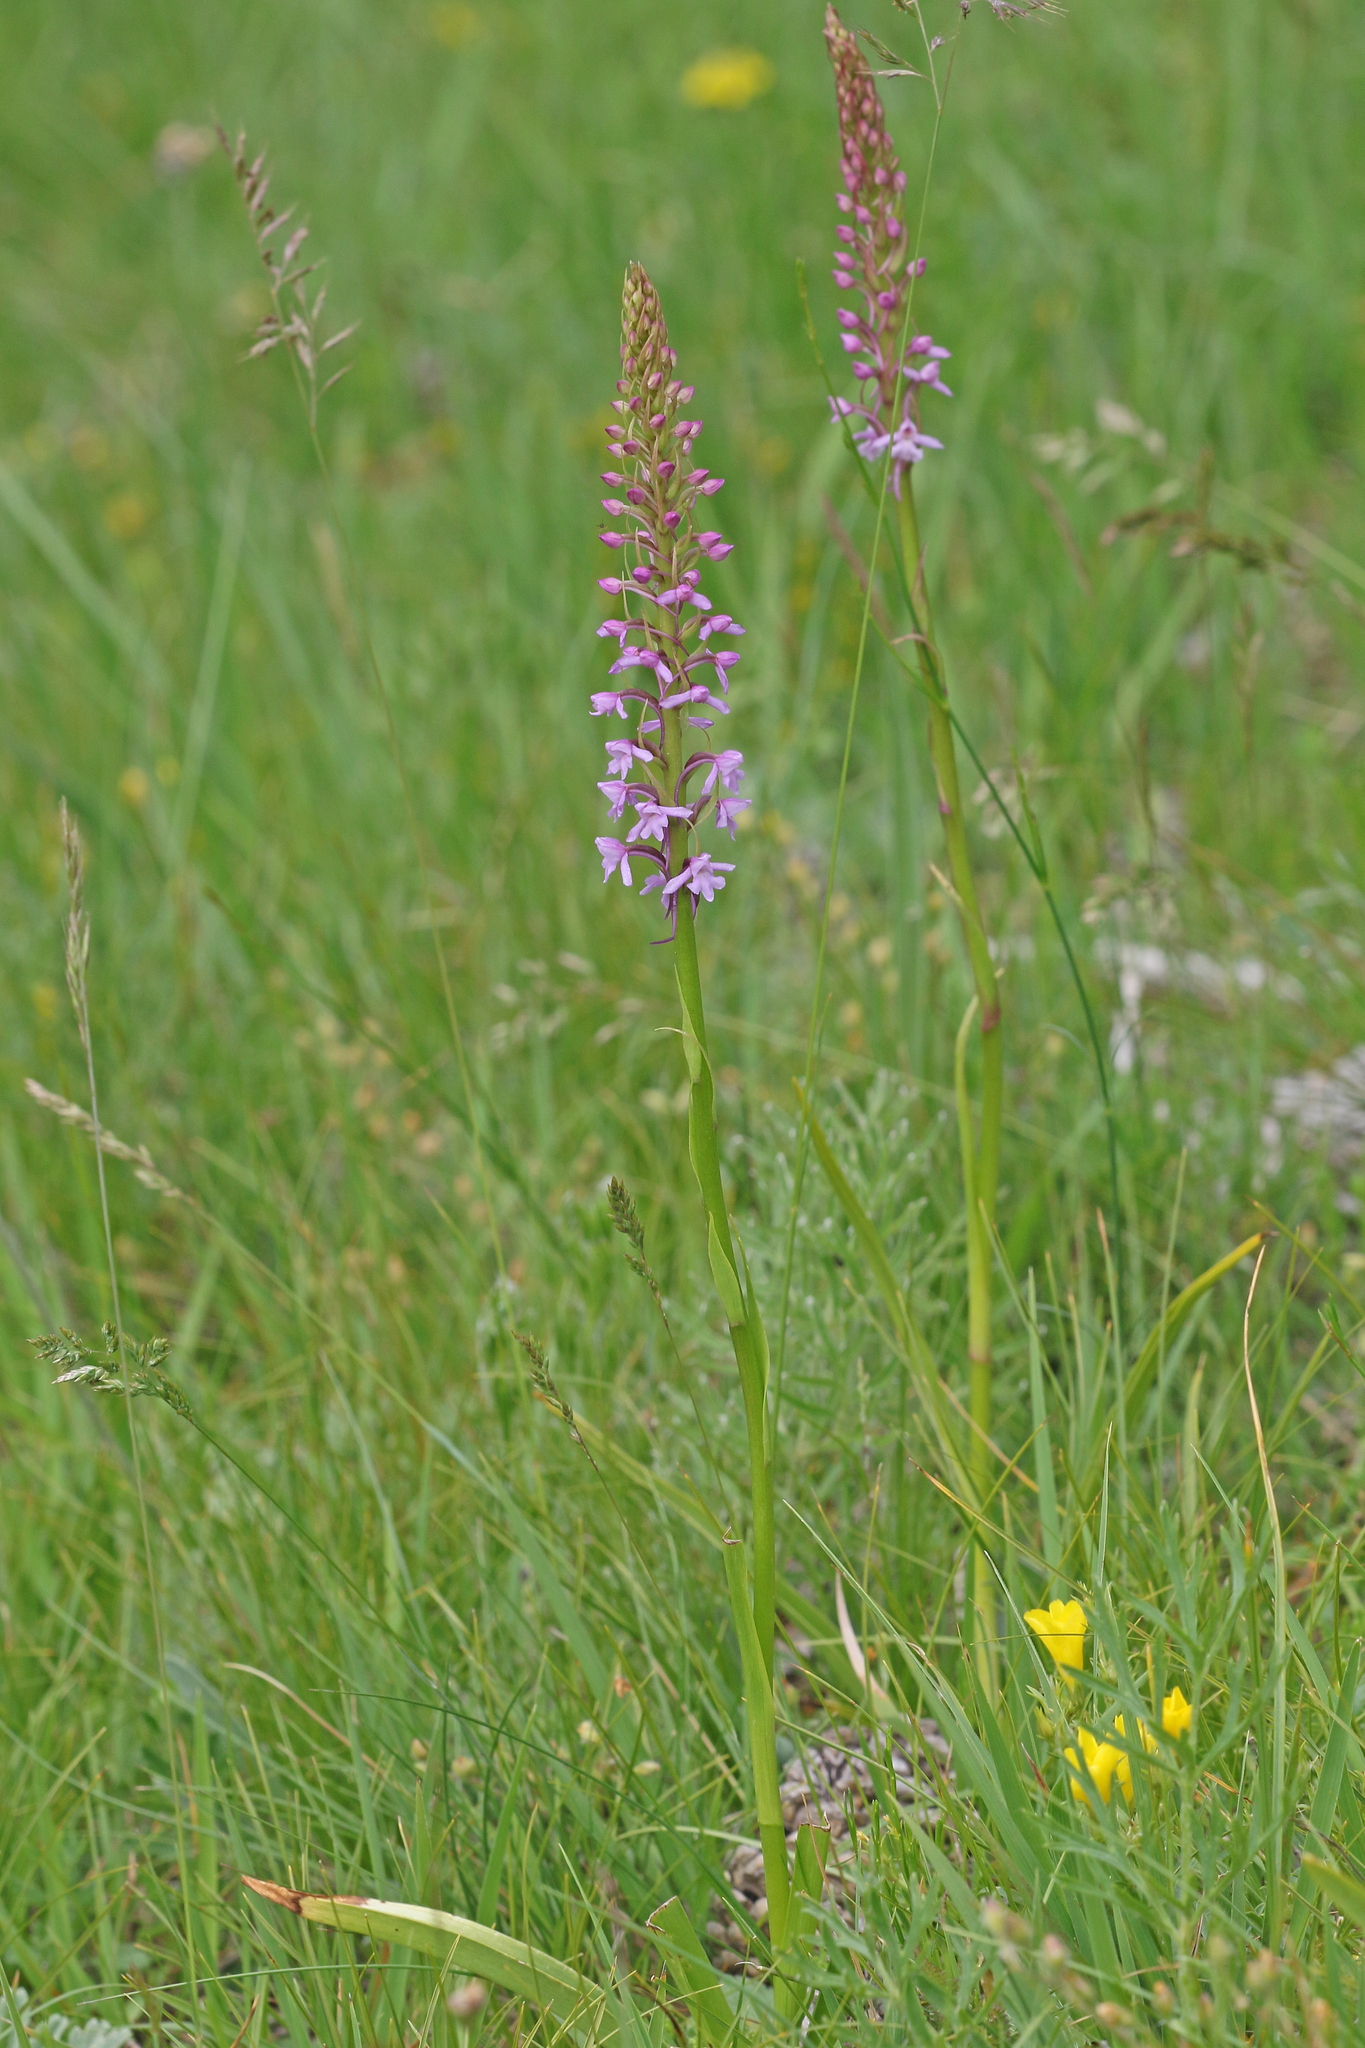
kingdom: Plantae
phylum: Tracheophyta
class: Liliopsida
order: Asparagales
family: Orchidaceae
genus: Gymnadenia
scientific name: Gymnadenia conopsea
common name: Fragrant orchid
